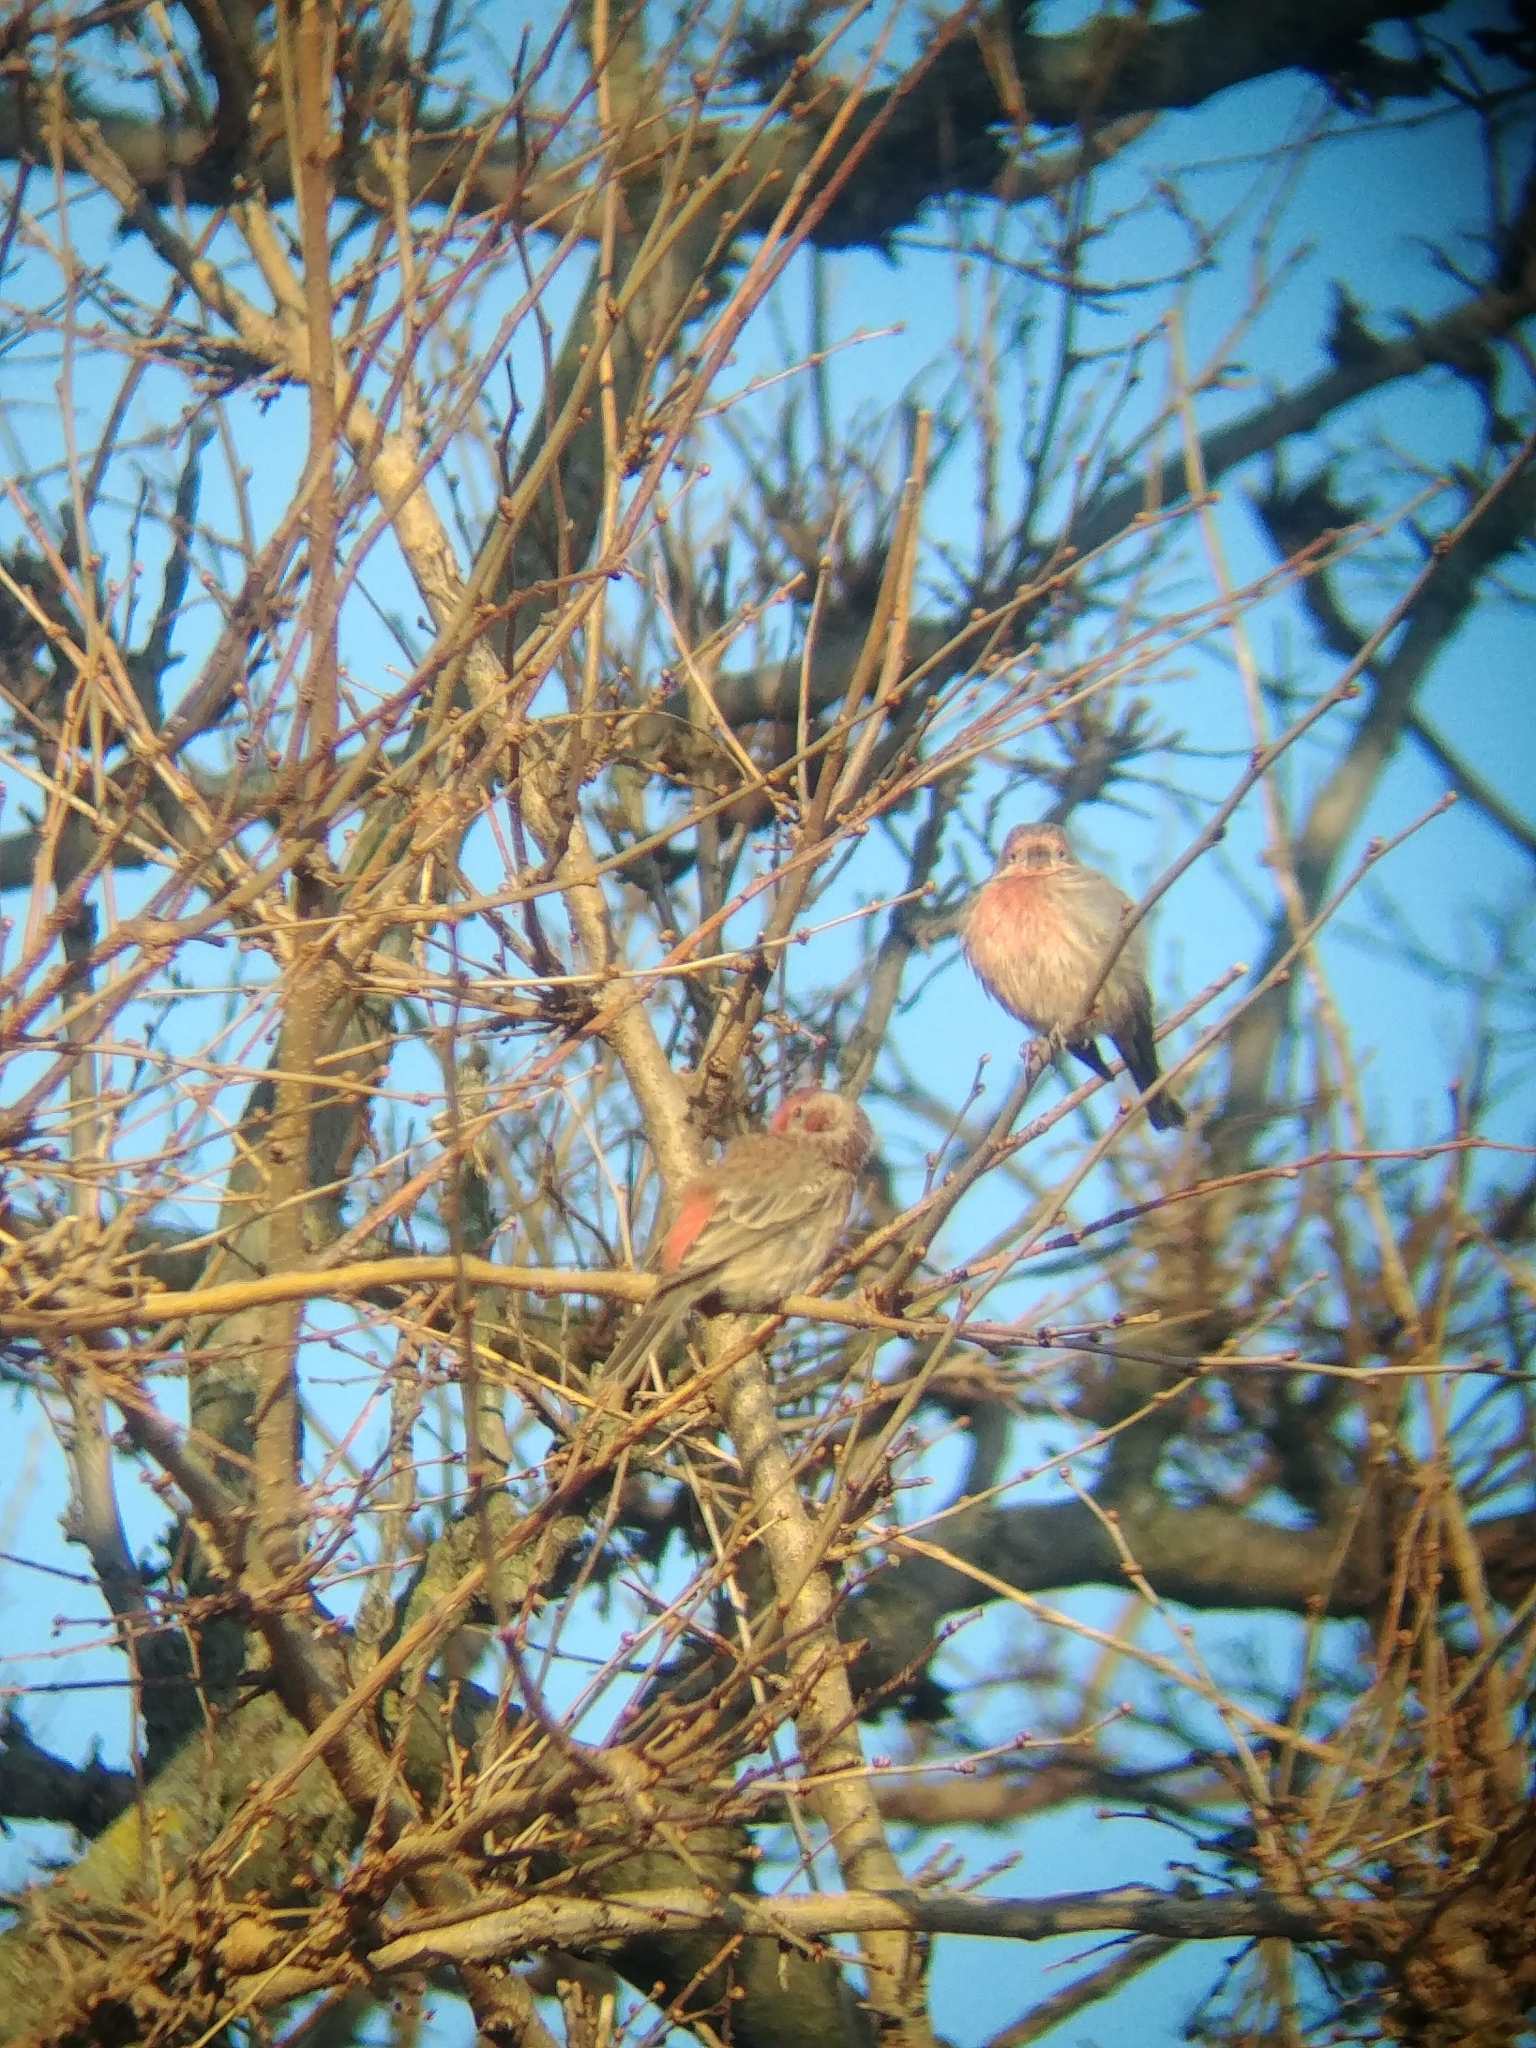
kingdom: Animalia
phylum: Chordata
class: Aves
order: Passeriformes
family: Fringillidae
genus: Haemorhous
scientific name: Haemorhous mexicanus
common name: House finch
